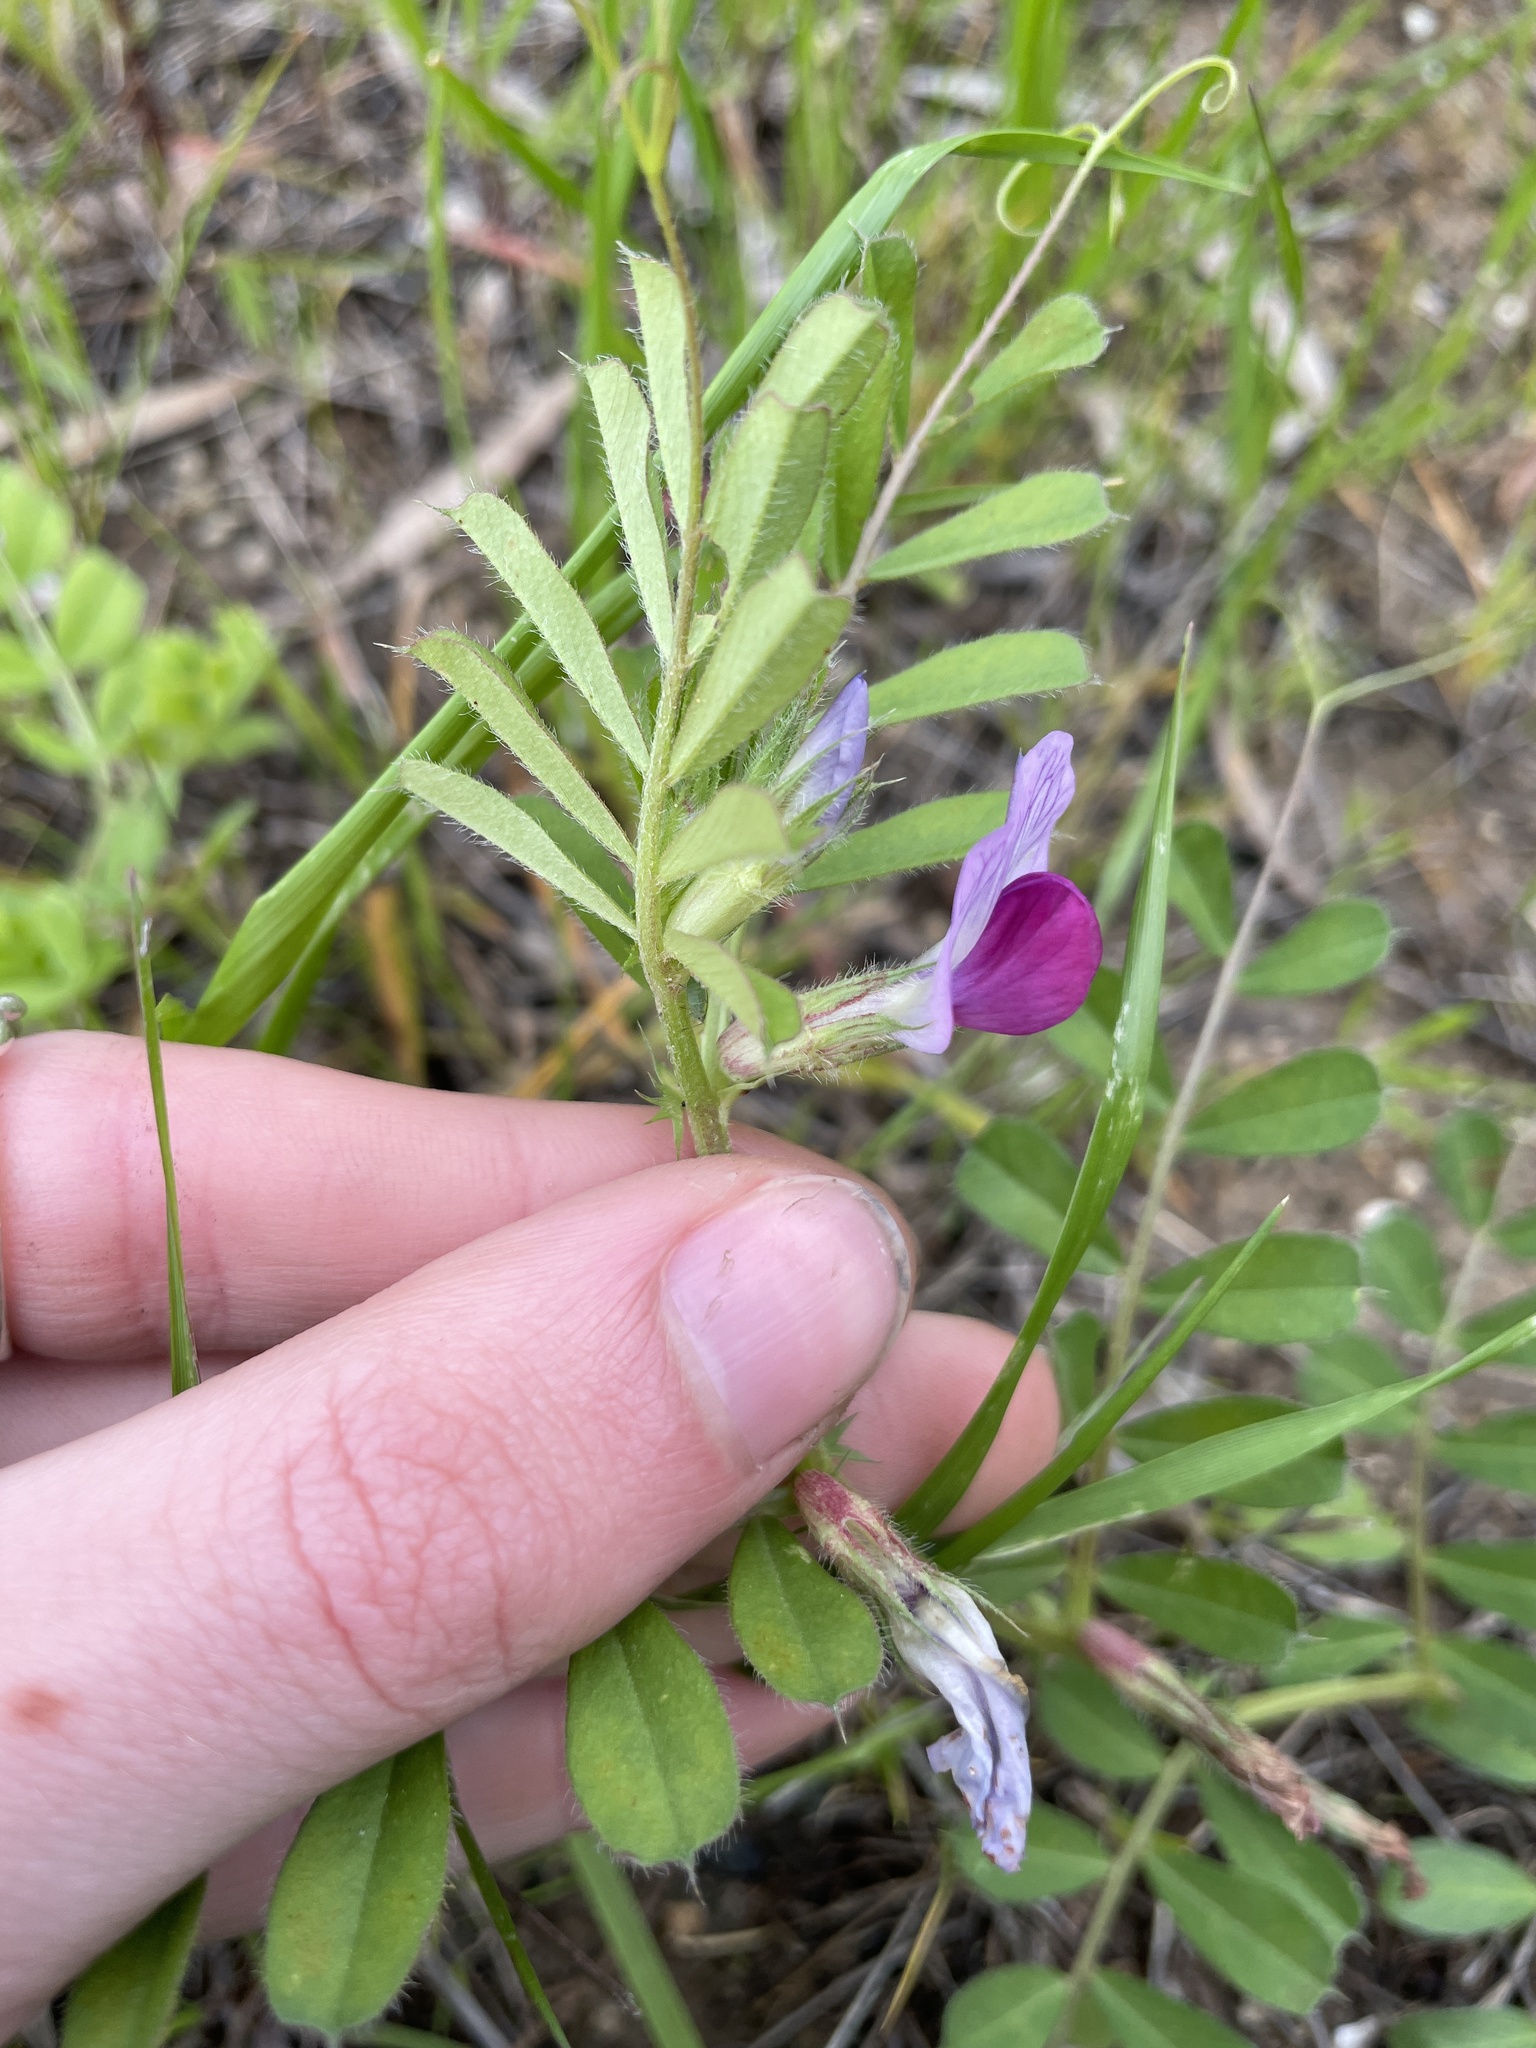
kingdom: Plantae
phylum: Tracheophyta
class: Magnoliopsida
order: Fabales
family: Fabaceae
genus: Vicia
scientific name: Vicia sativa
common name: Garden vetch
